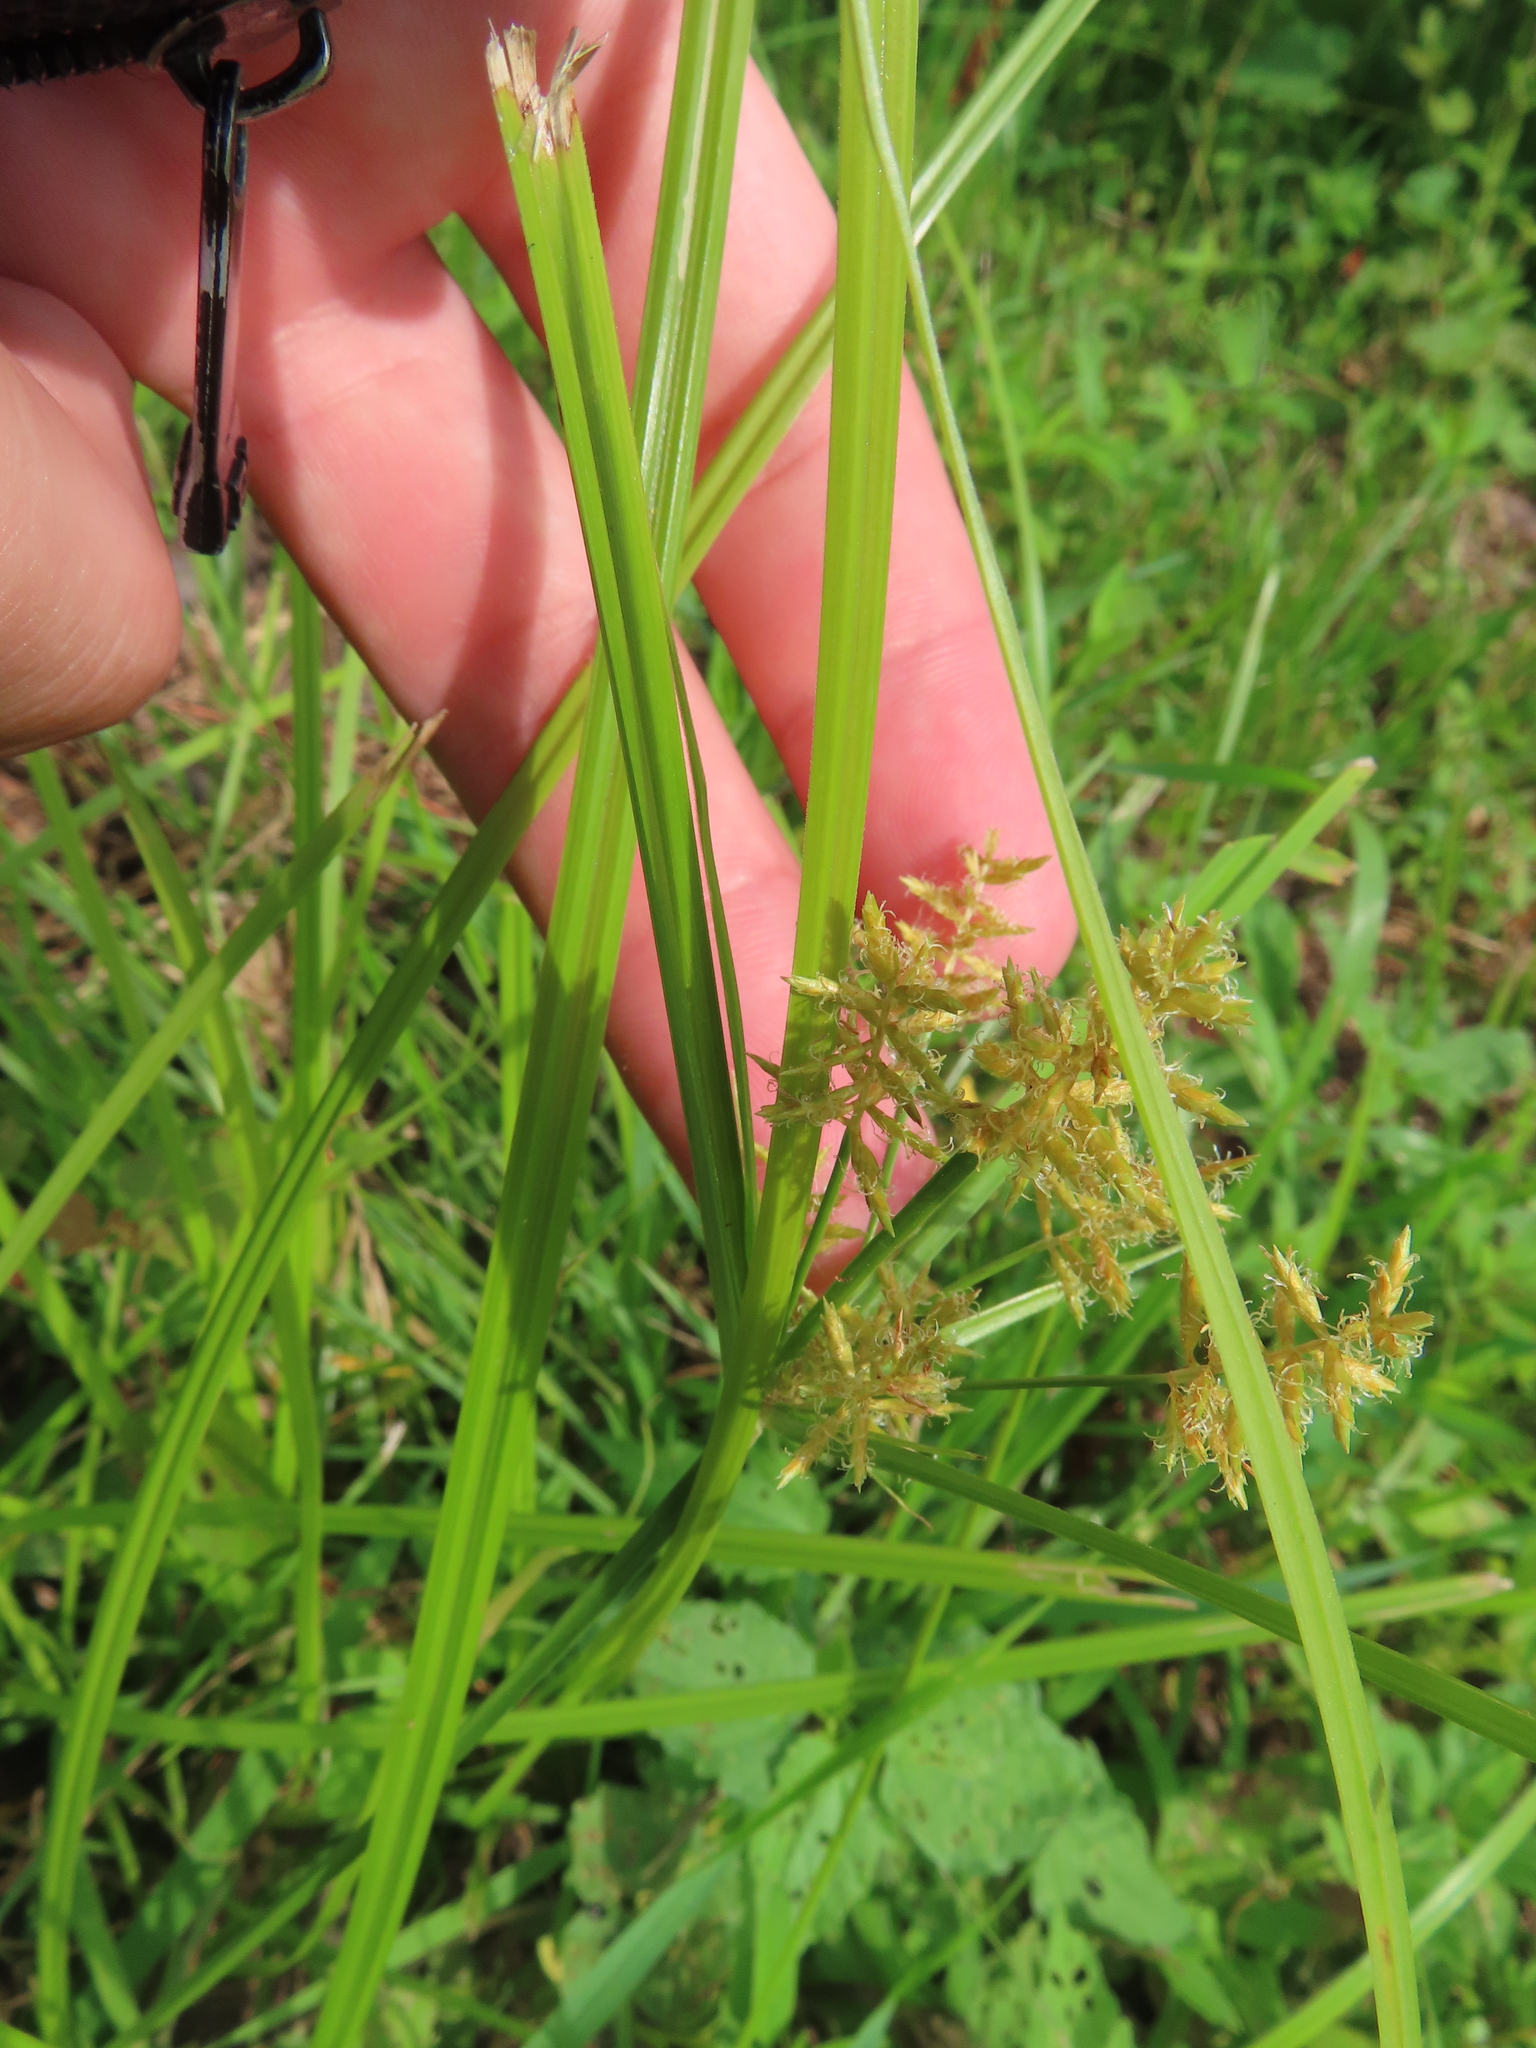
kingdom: Plantae
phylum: Tracheophyta
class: Liliopsida
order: Poales
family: Cyperaceae
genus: Cyperus
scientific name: Cyperus esculentus
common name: Yellow nutsedge
